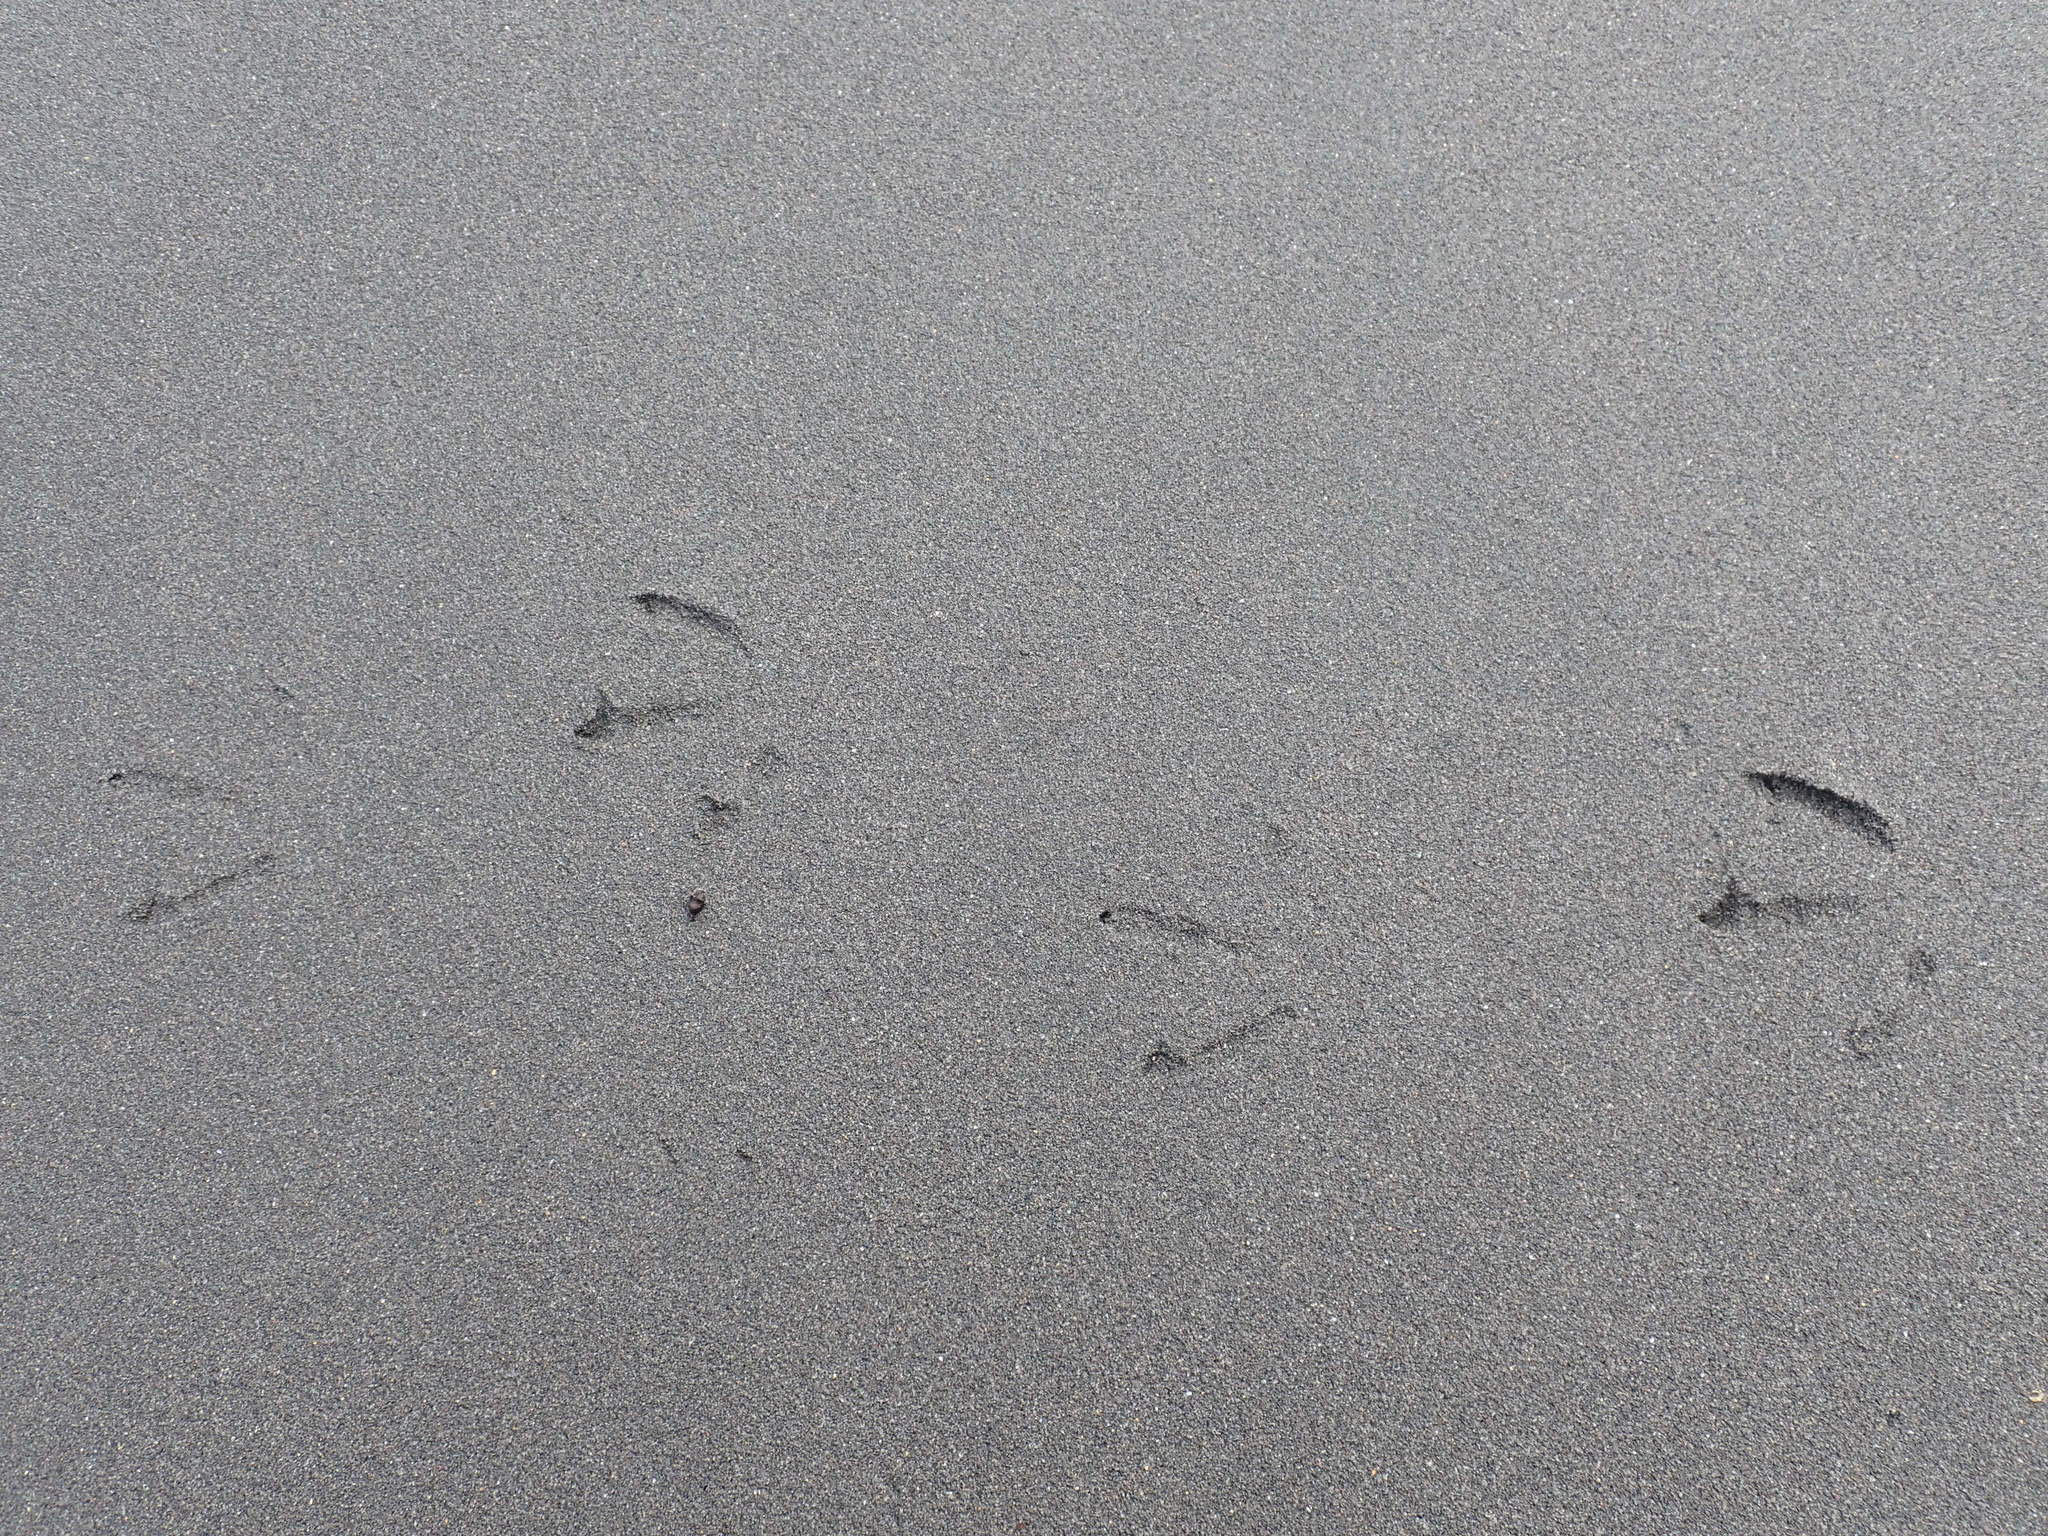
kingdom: Animalia
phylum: Chordata
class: Aves
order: Charadriiformes
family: Haematopodidae
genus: Haematopus
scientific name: Haematopus unicolor
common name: Variable oystercatcher
